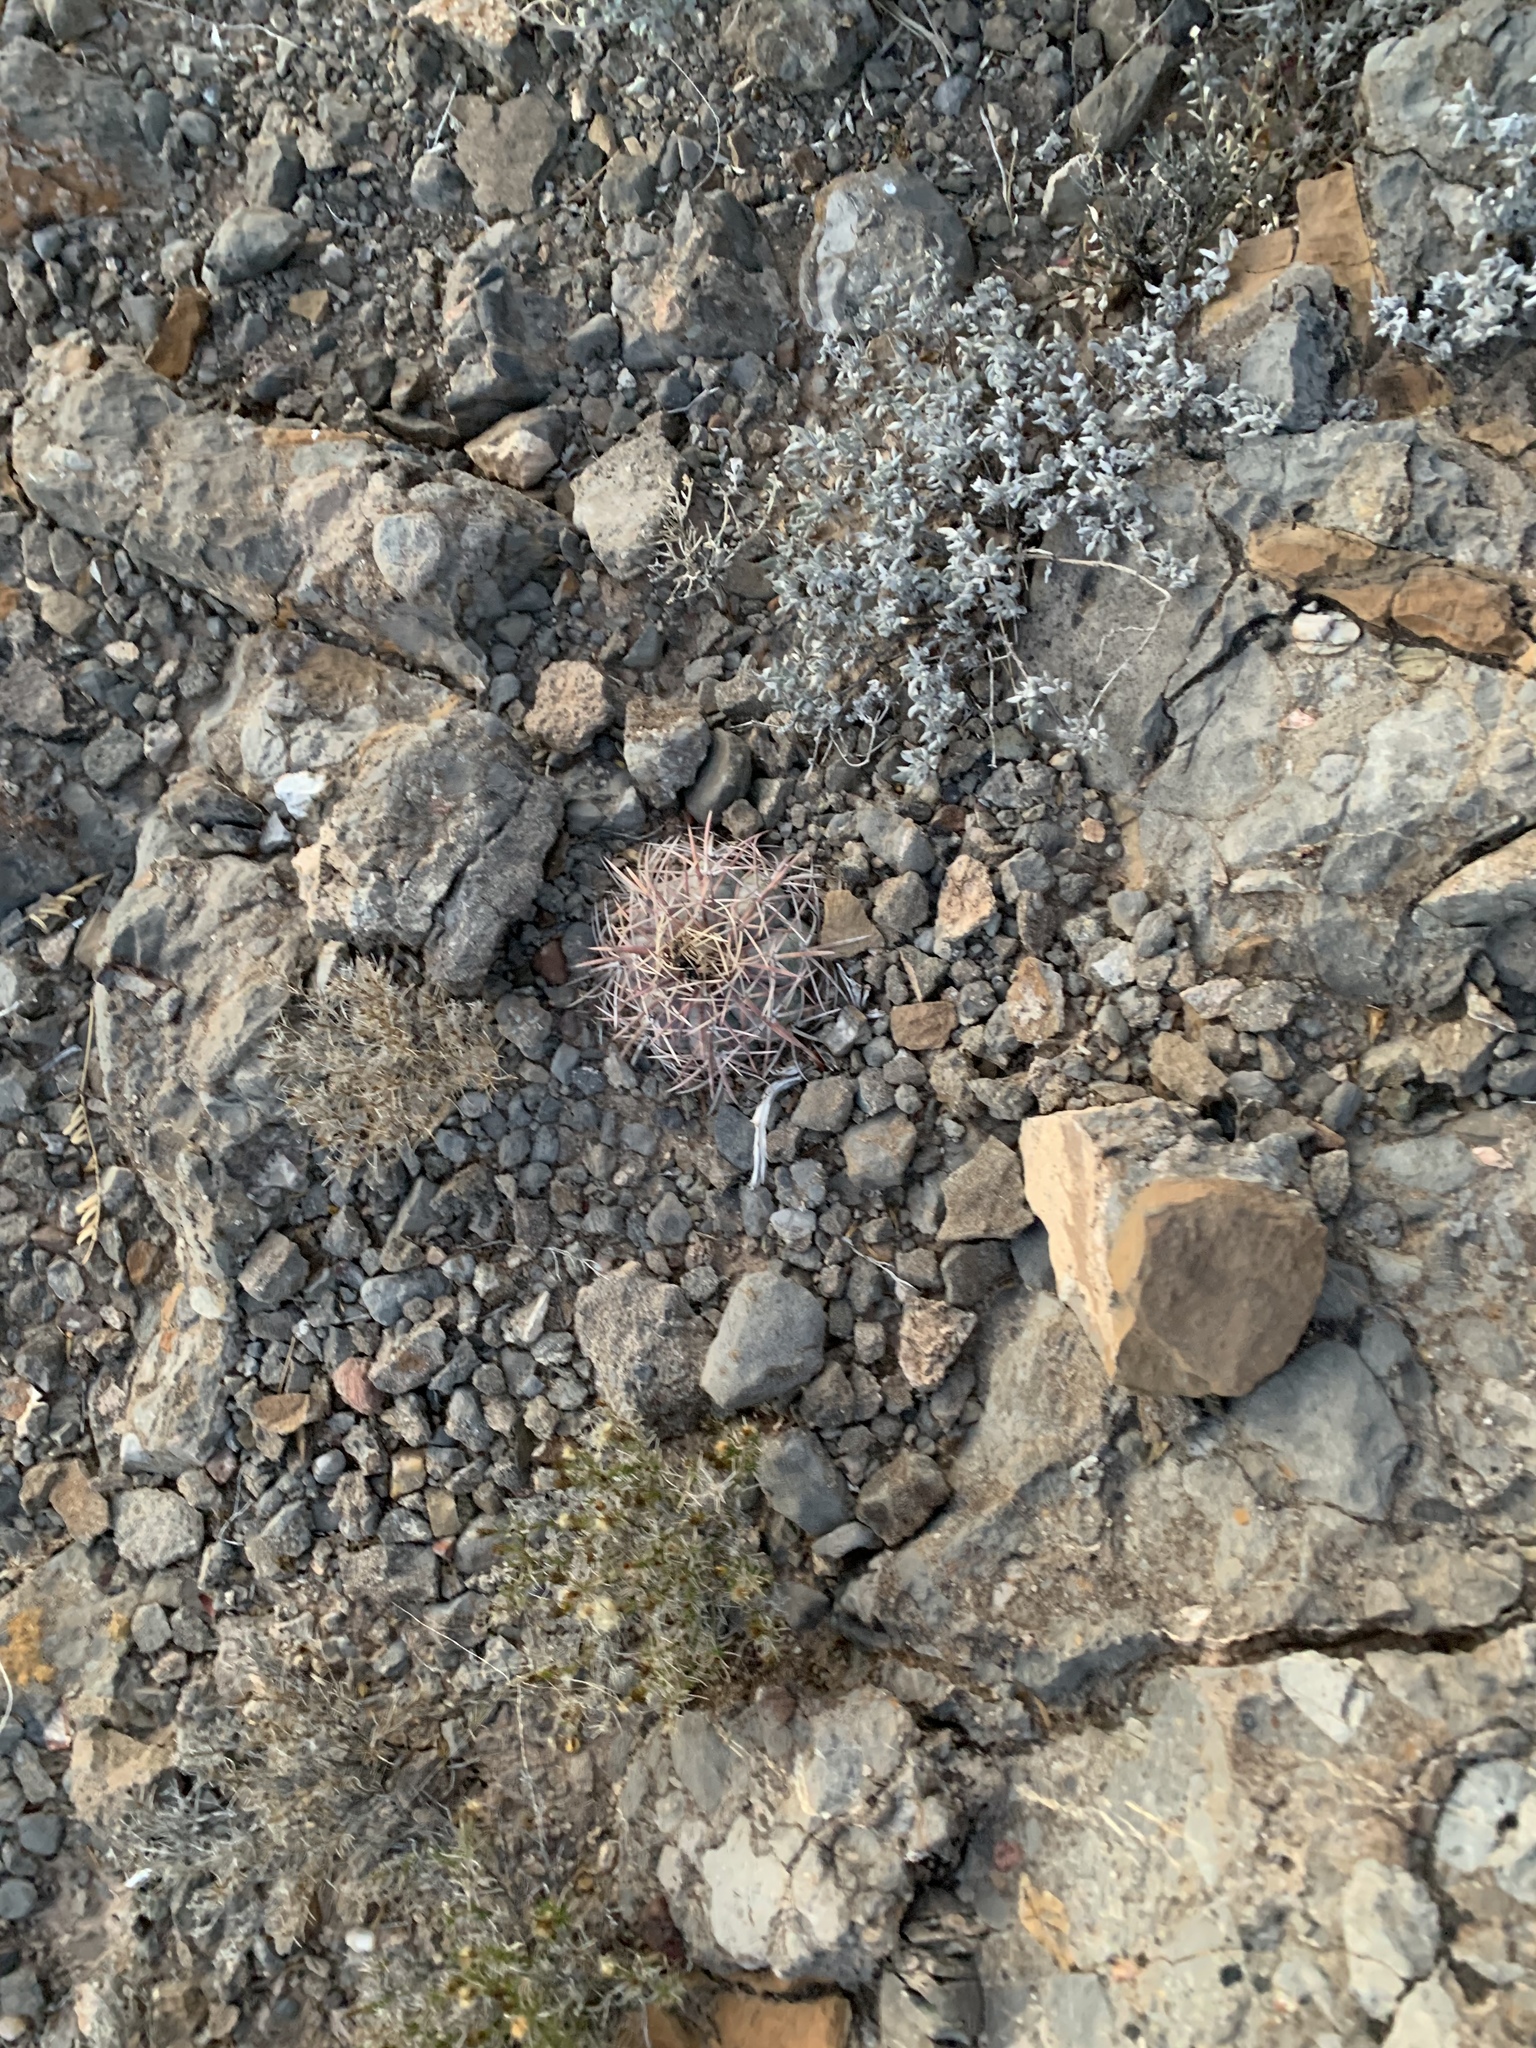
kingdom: Plantae
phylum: Tracheophyta
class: Magnoliopsida
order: Caryophyllales
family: Cactaceae
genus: Echinocactus
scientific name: Echinocactus horizonthalonius
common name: Devilshead
